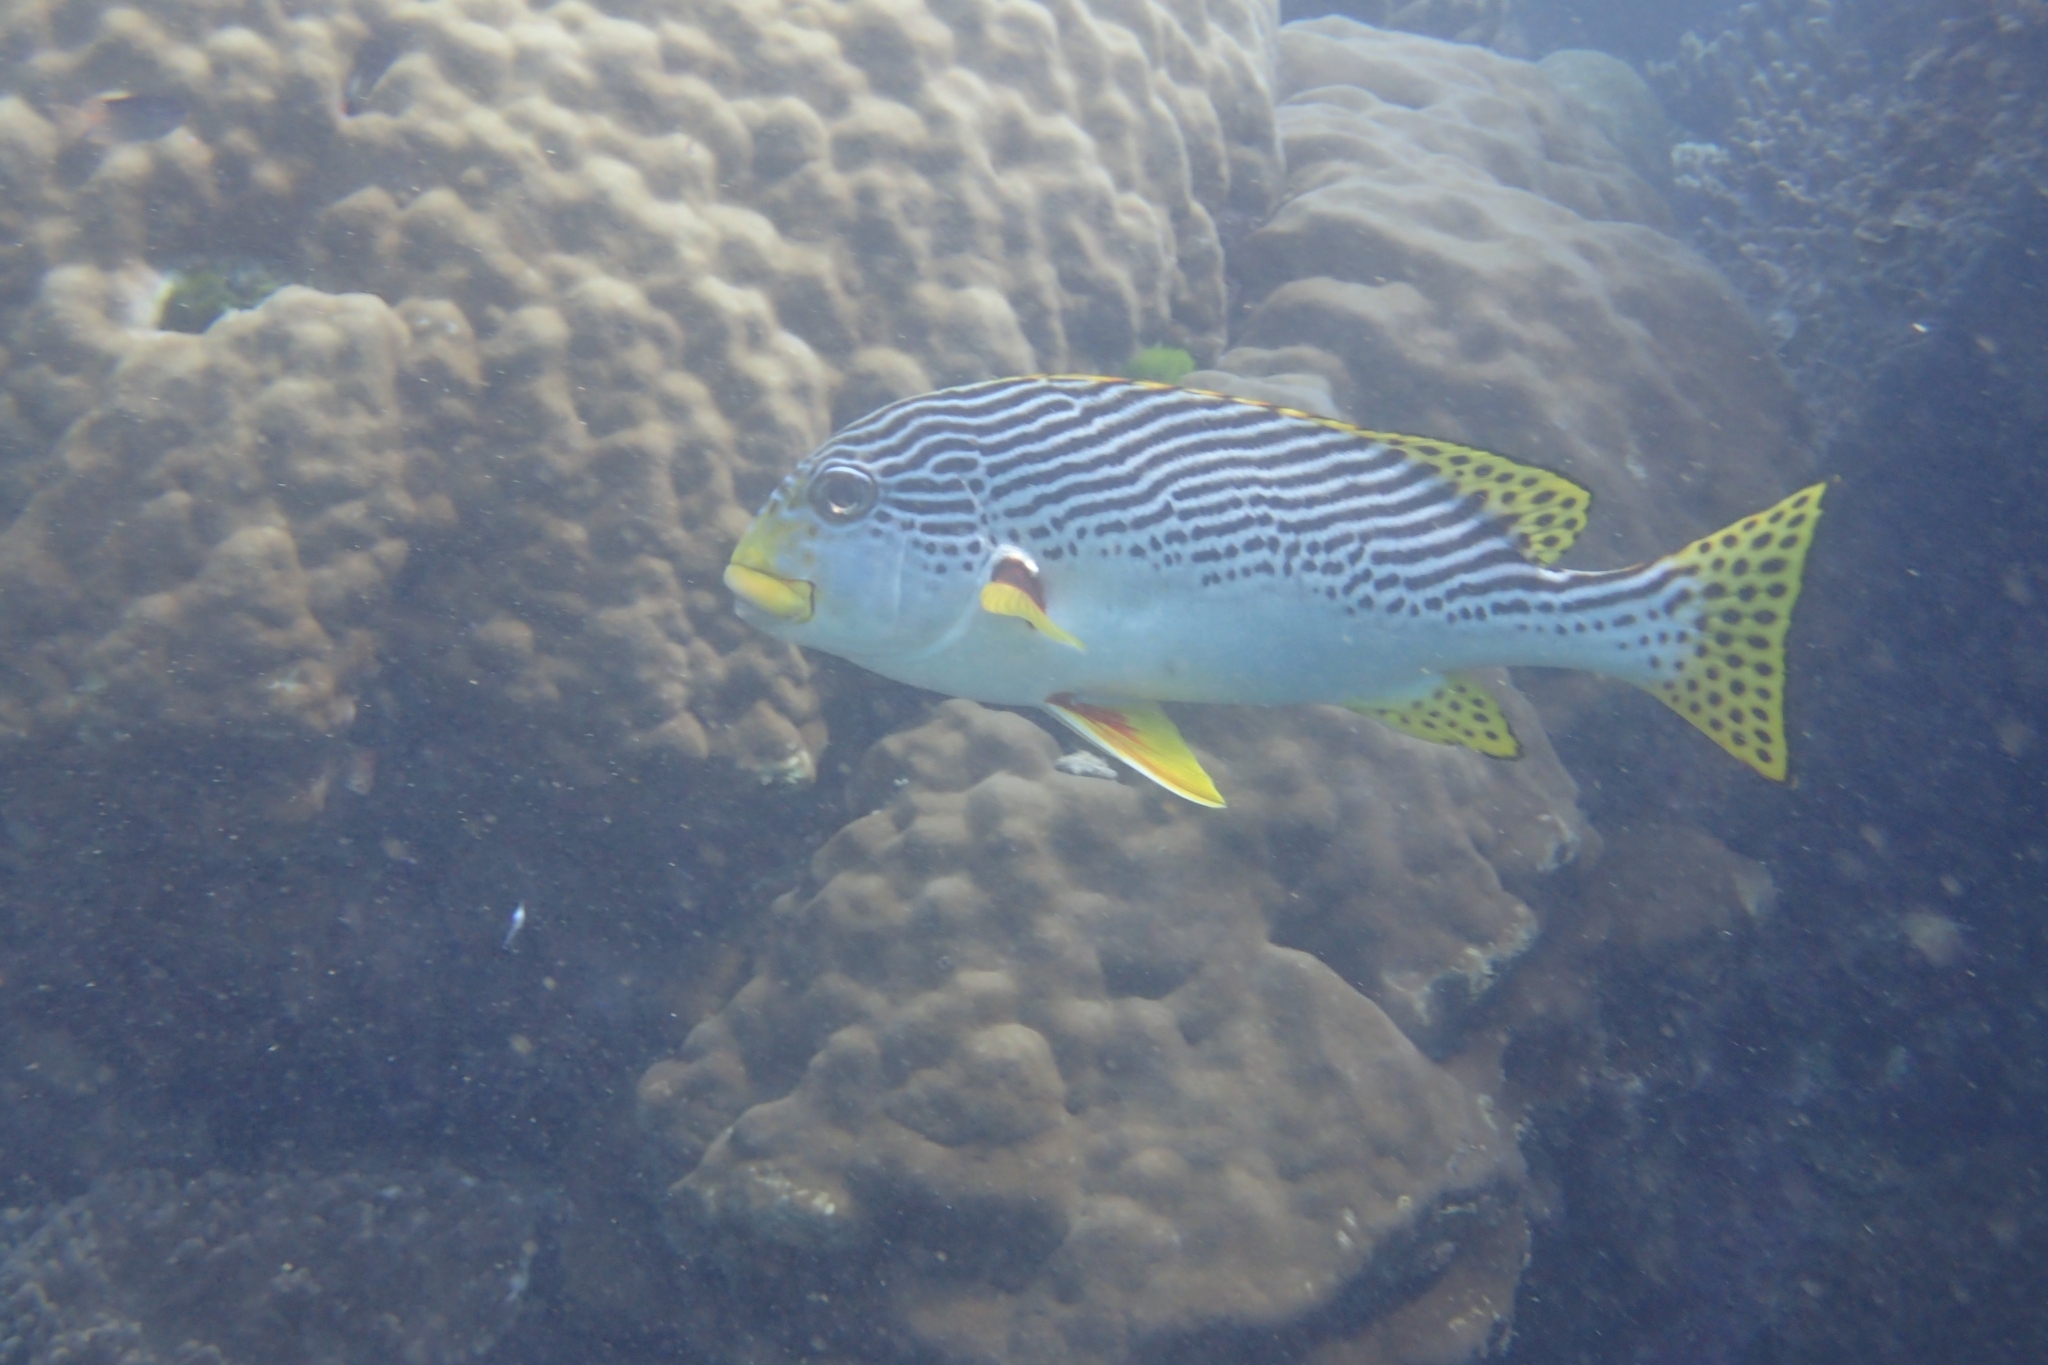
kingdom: Animalia
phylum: Chordata
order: Perciformes
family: Haemulidae
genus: Plectorhinchus
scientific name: Plectorhinchus lineatus
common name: Goldman's sweetlips
